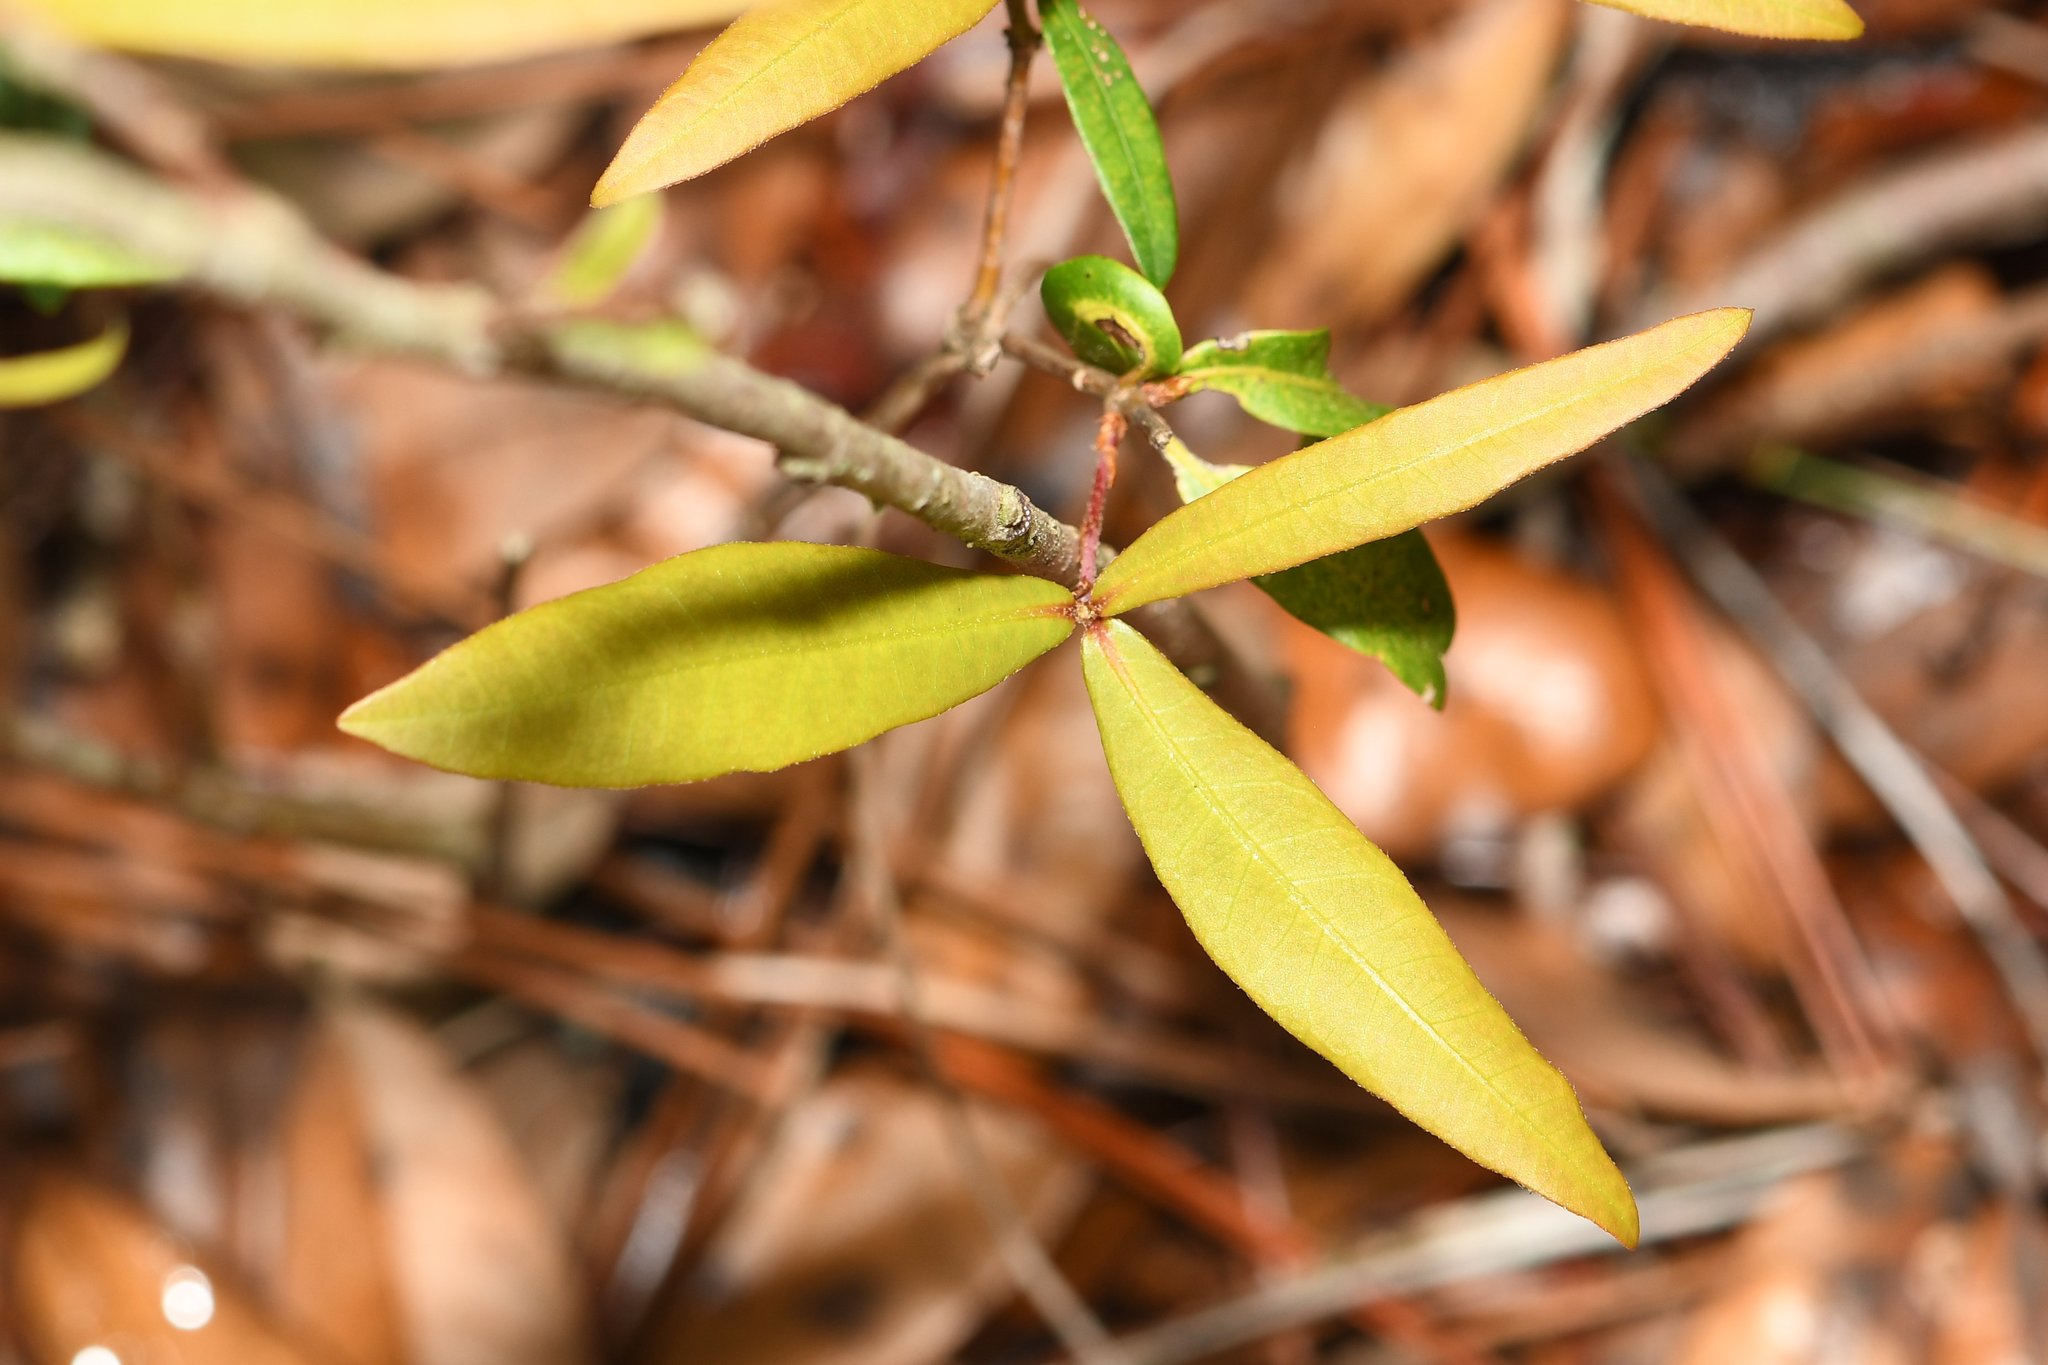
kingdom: Plantae
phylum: Tracheophyta
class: Magnoliopsida
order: Magnoliales
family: Annonaceae
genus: Asimina
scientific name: Asimina reticulata
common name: Flag pawpaw
